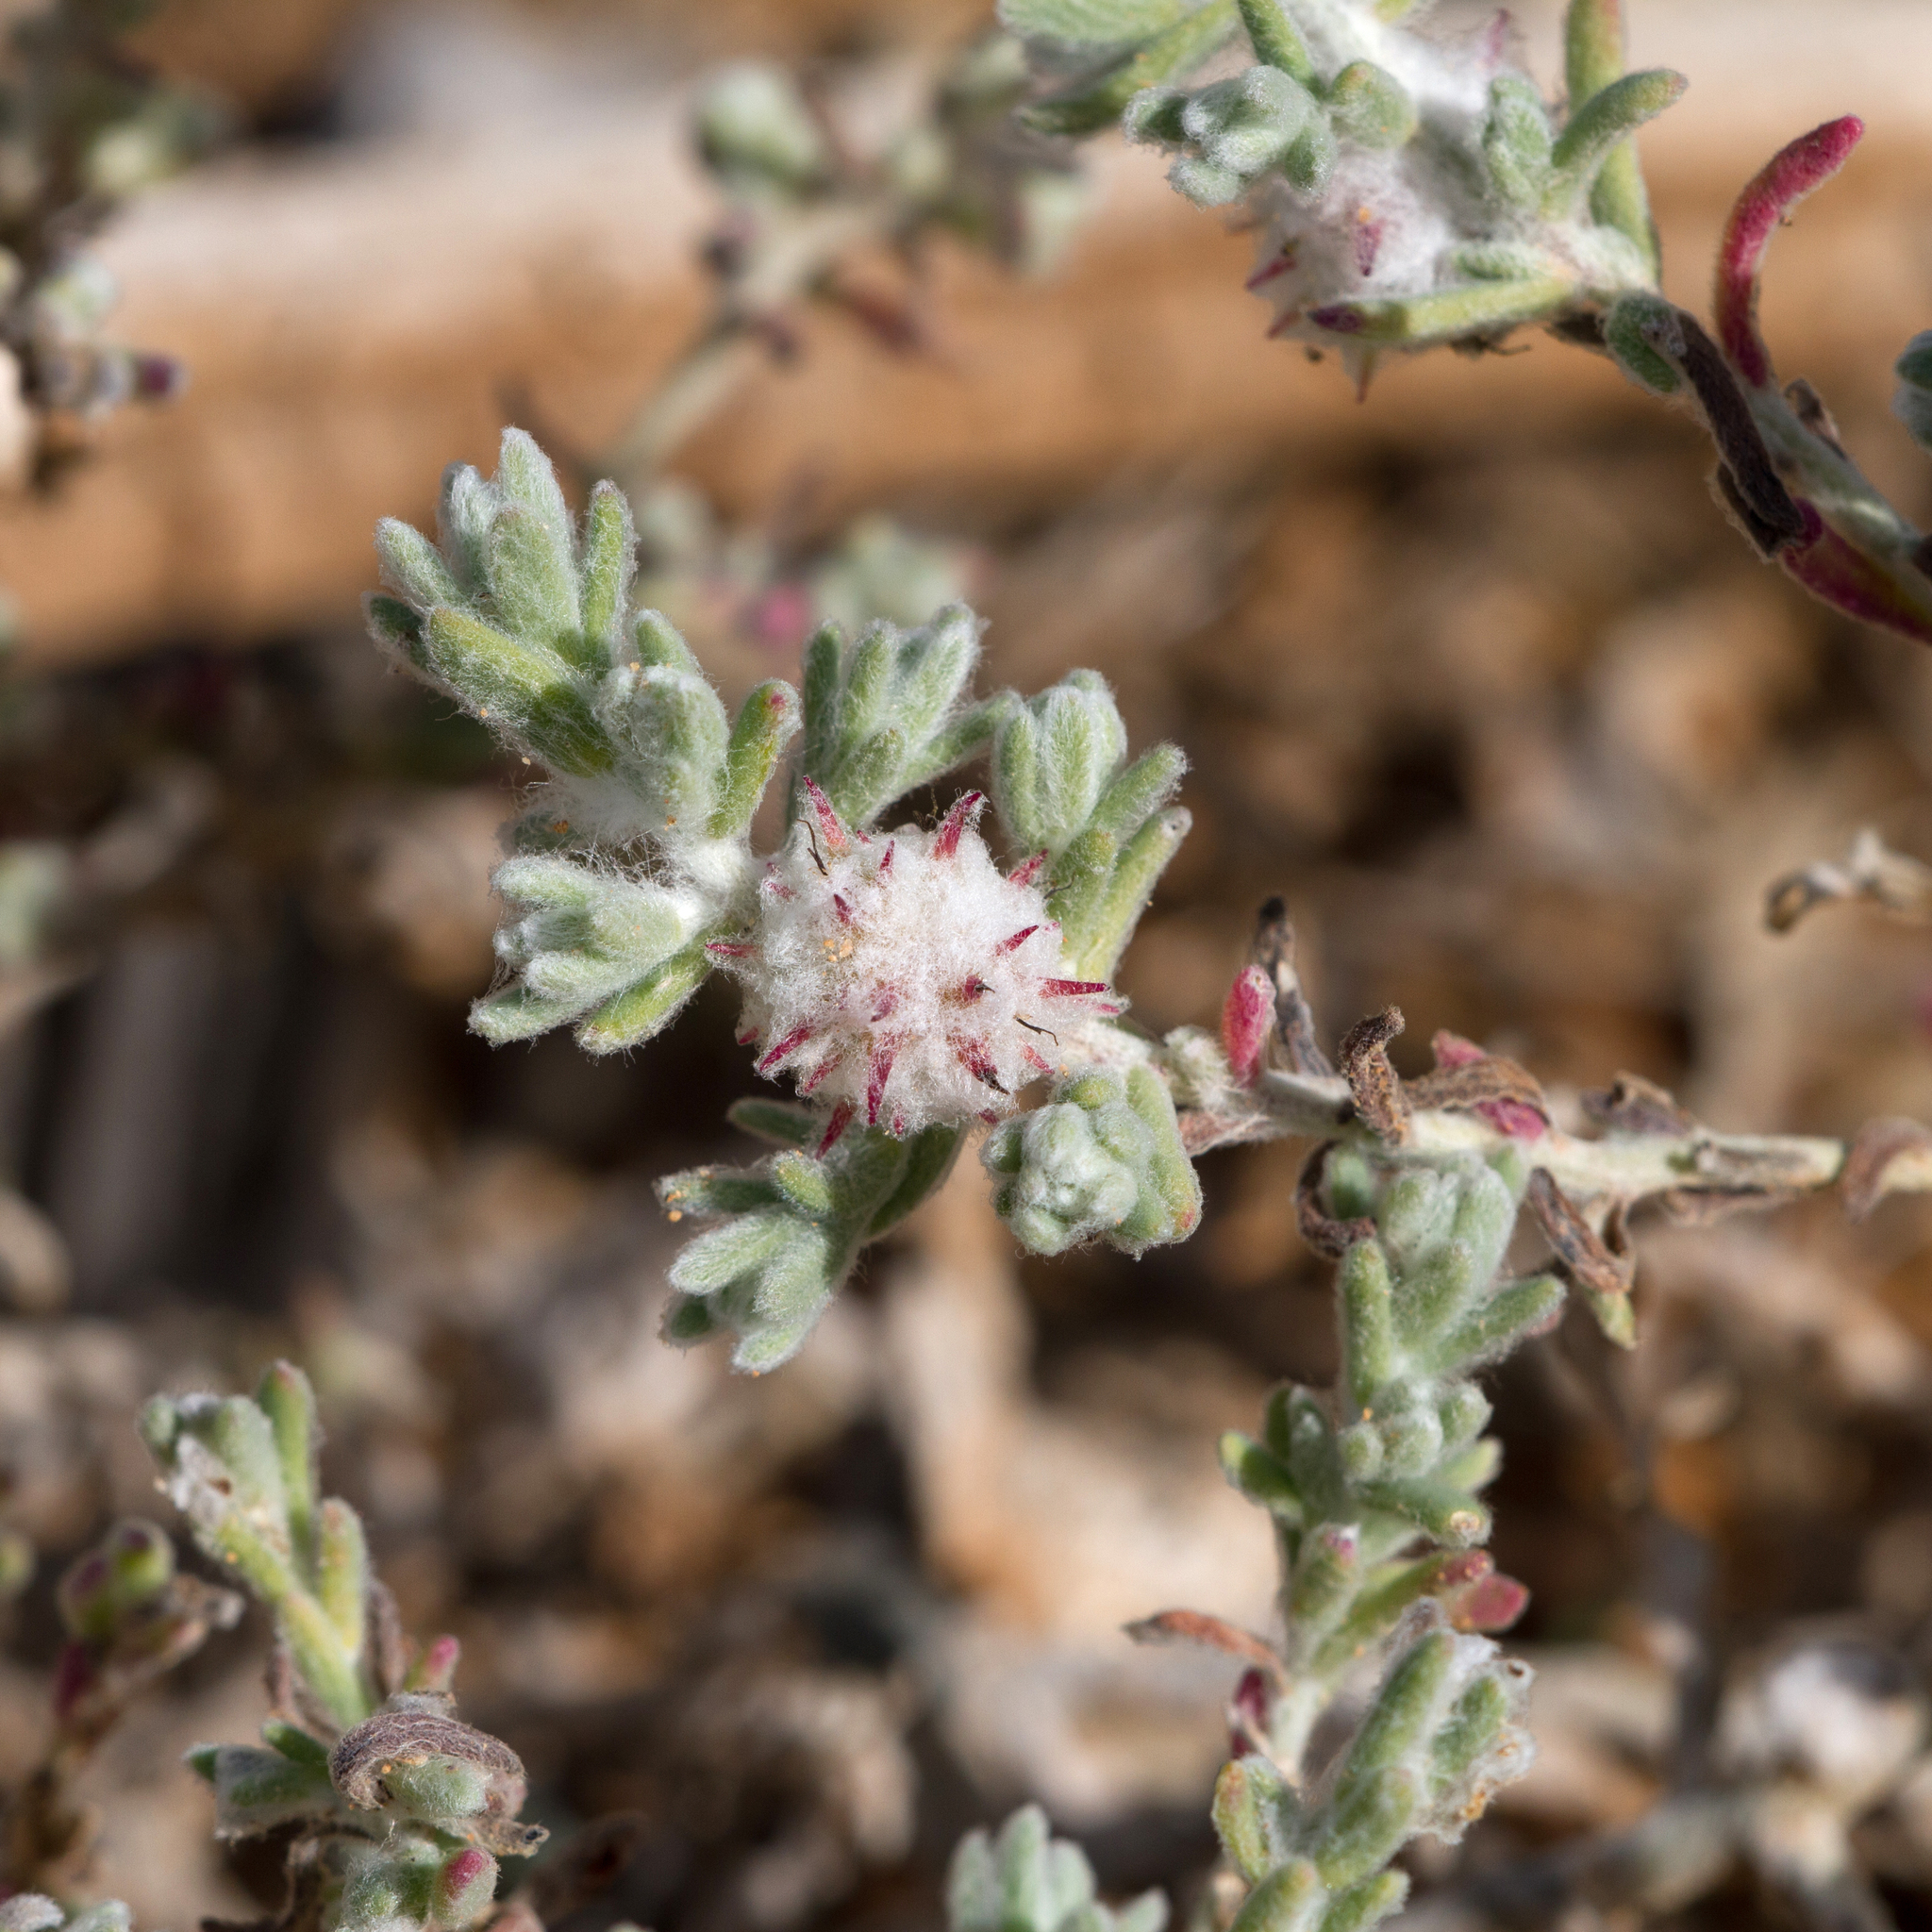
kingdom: Plantae
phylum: Tracheophyta
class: Magnoliopsida
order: Caryophyllales
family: Amaranthaceae
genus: Dissocarpus
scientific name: Dissocarpus paradoxus
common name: Bur-saltbush
